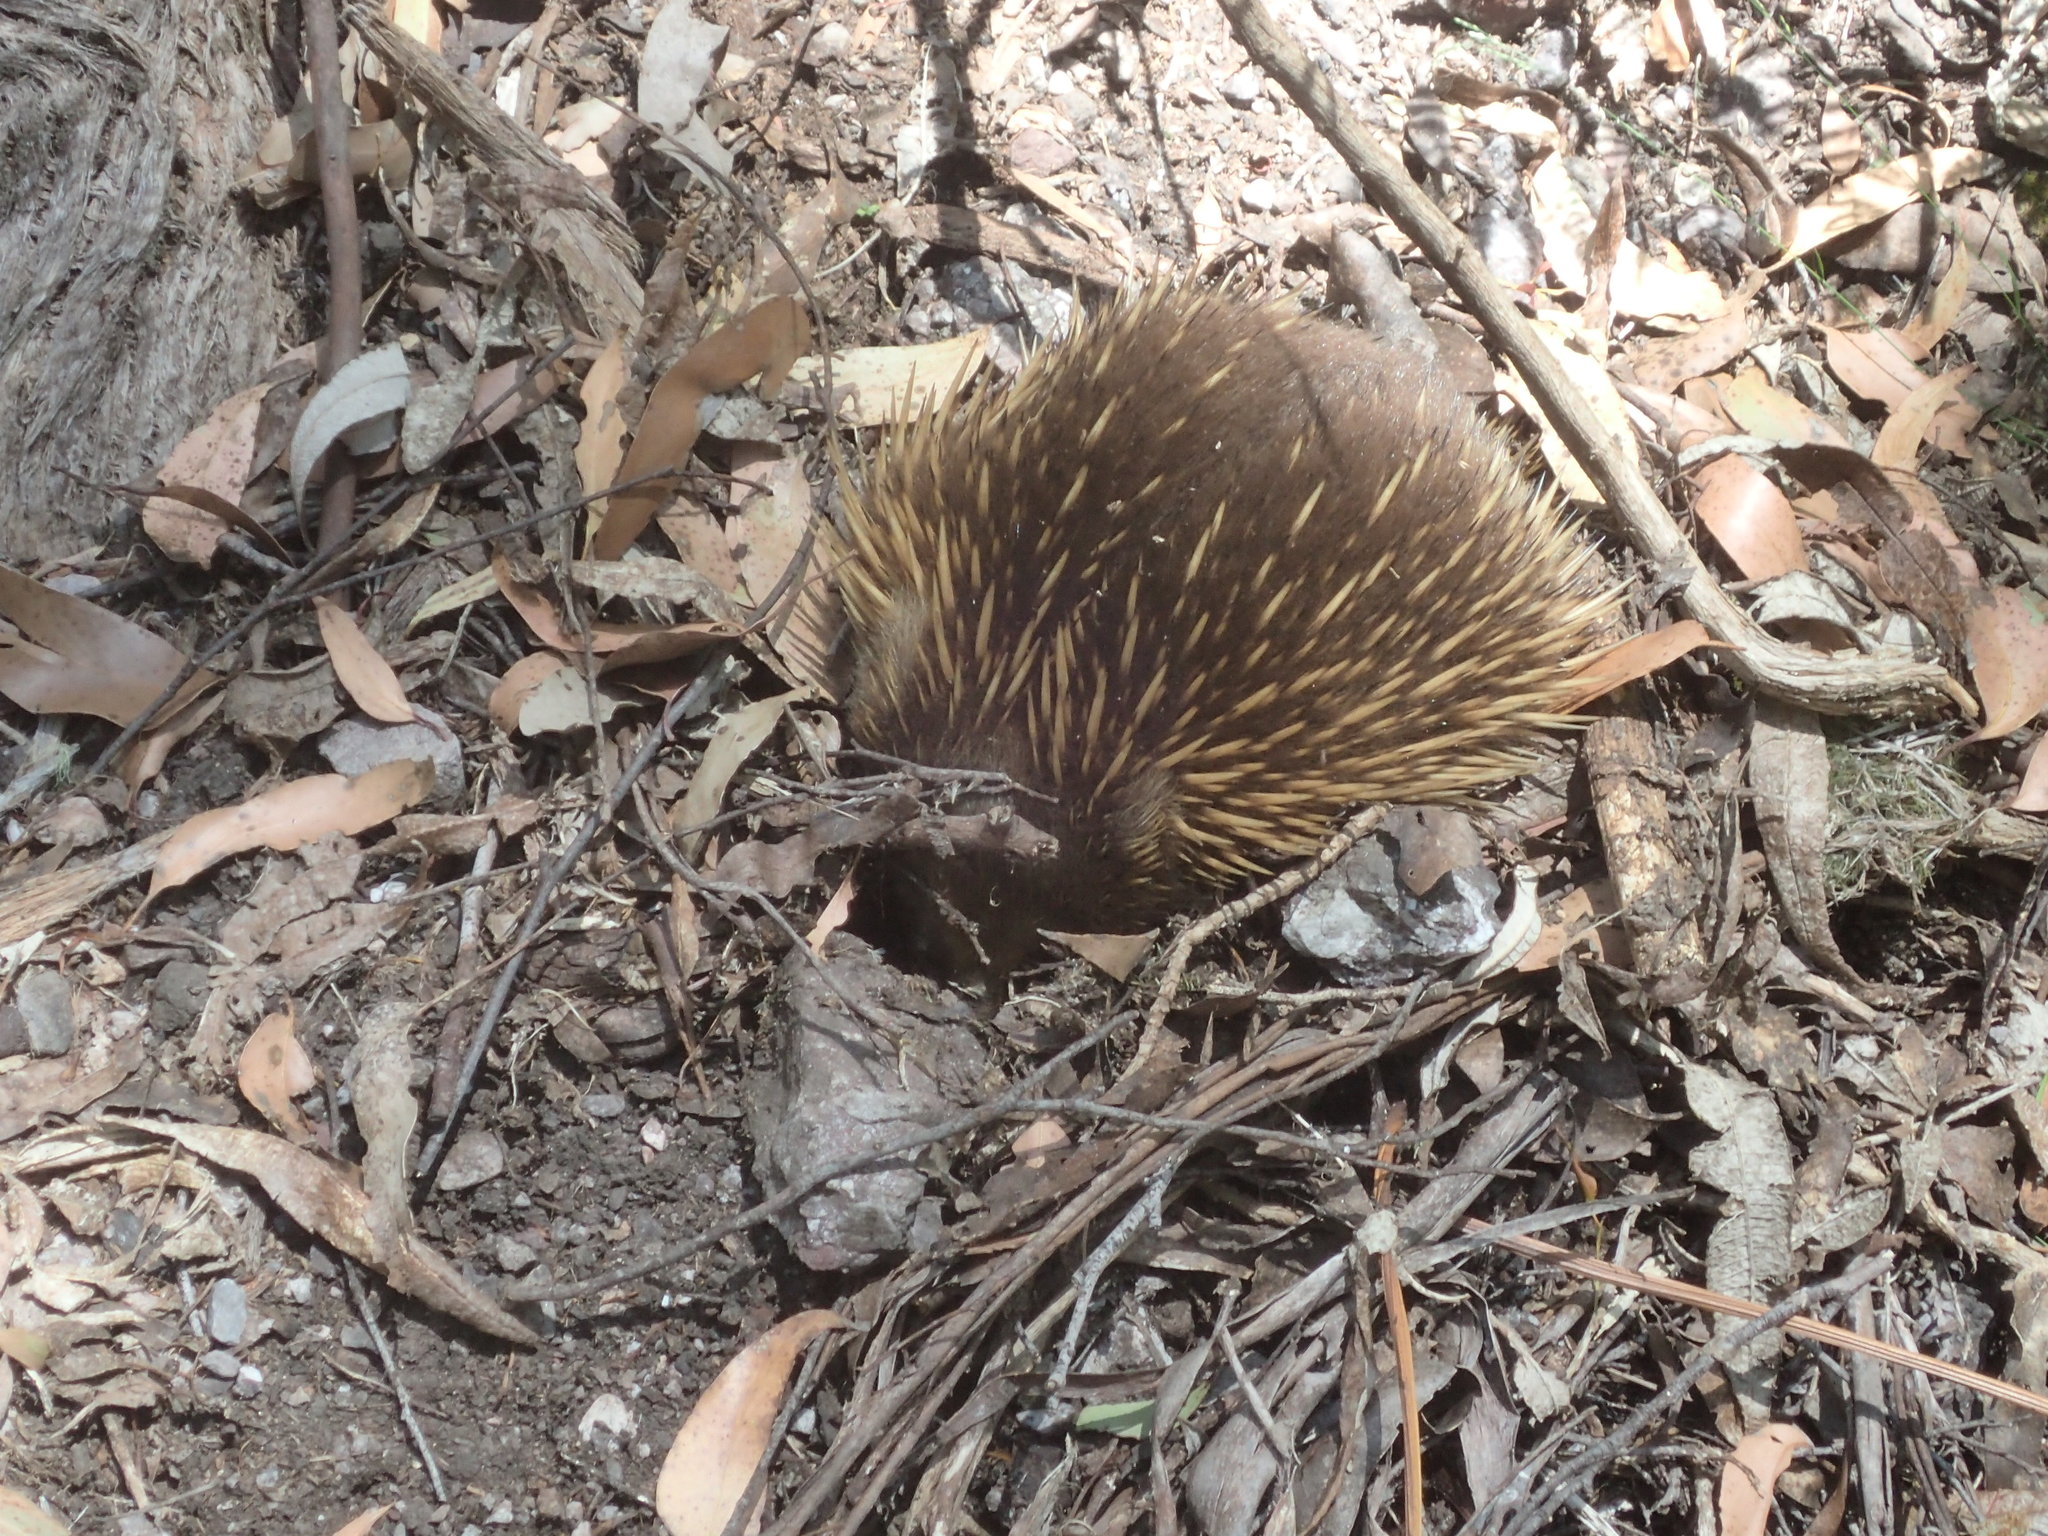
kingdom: Animalia
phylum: Chordata
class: Mammalia
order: Monotremata
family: Tachyglossidae
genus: Tachyglossus
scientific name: Tachyglossus aculeatus
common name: Short-beaked echidna
